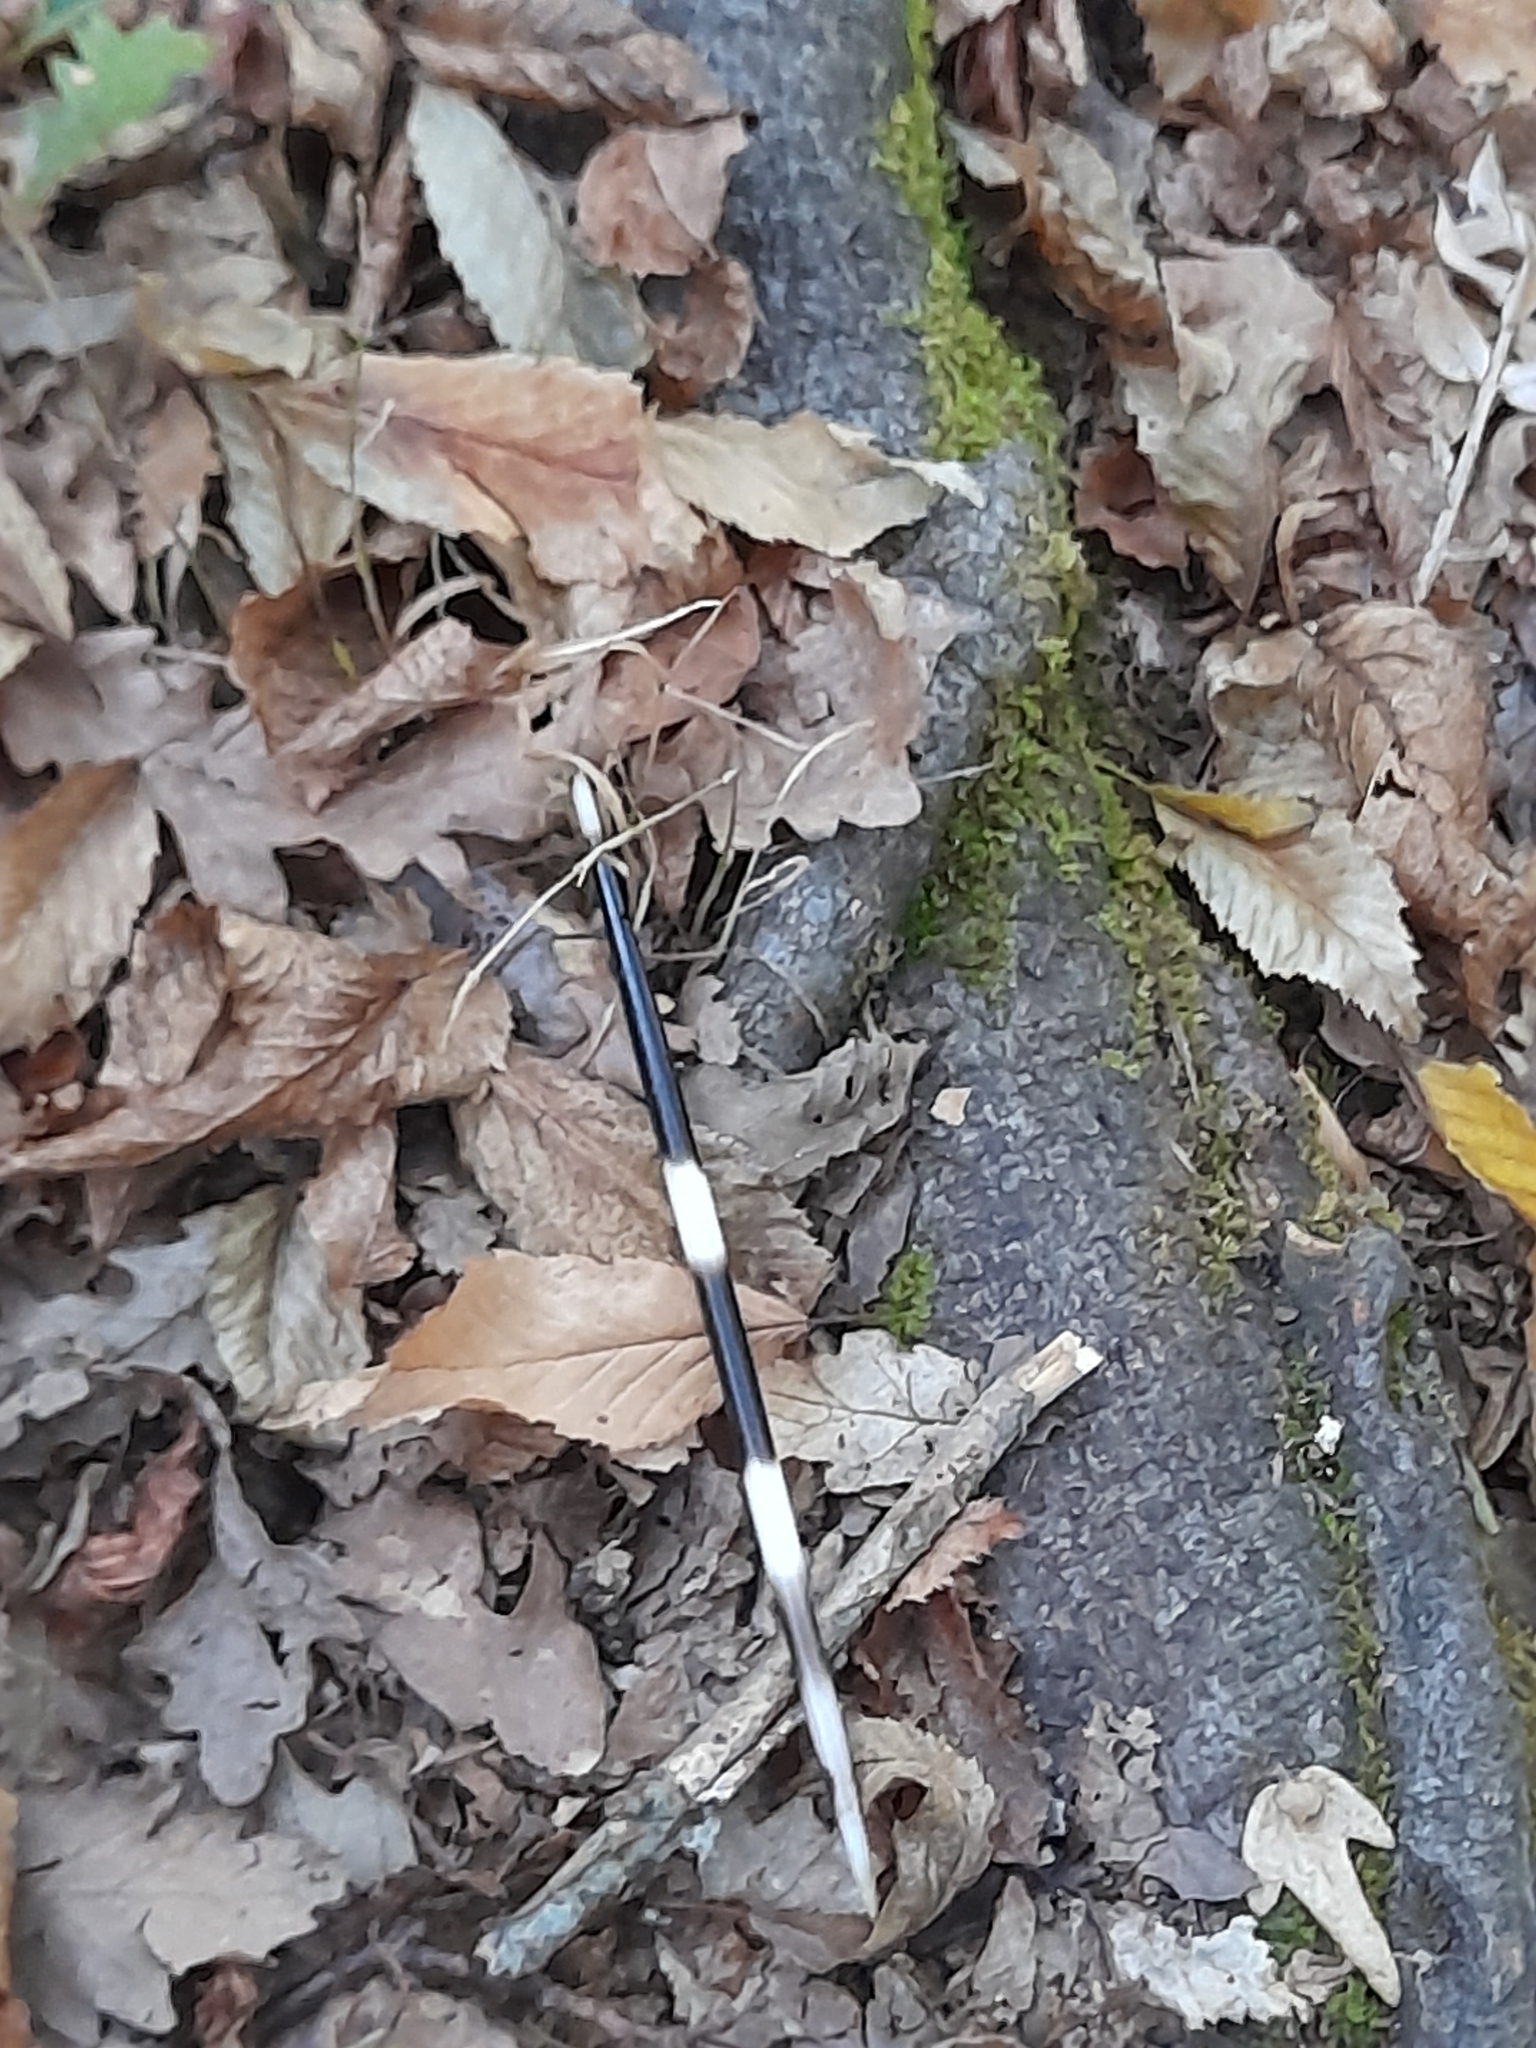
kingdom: Animalia
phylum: Chordata
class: Mammalia
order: Rodentia
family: Hystricidae
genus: Hystrix
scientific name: Hystrix cristata
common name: Crested porcupine
